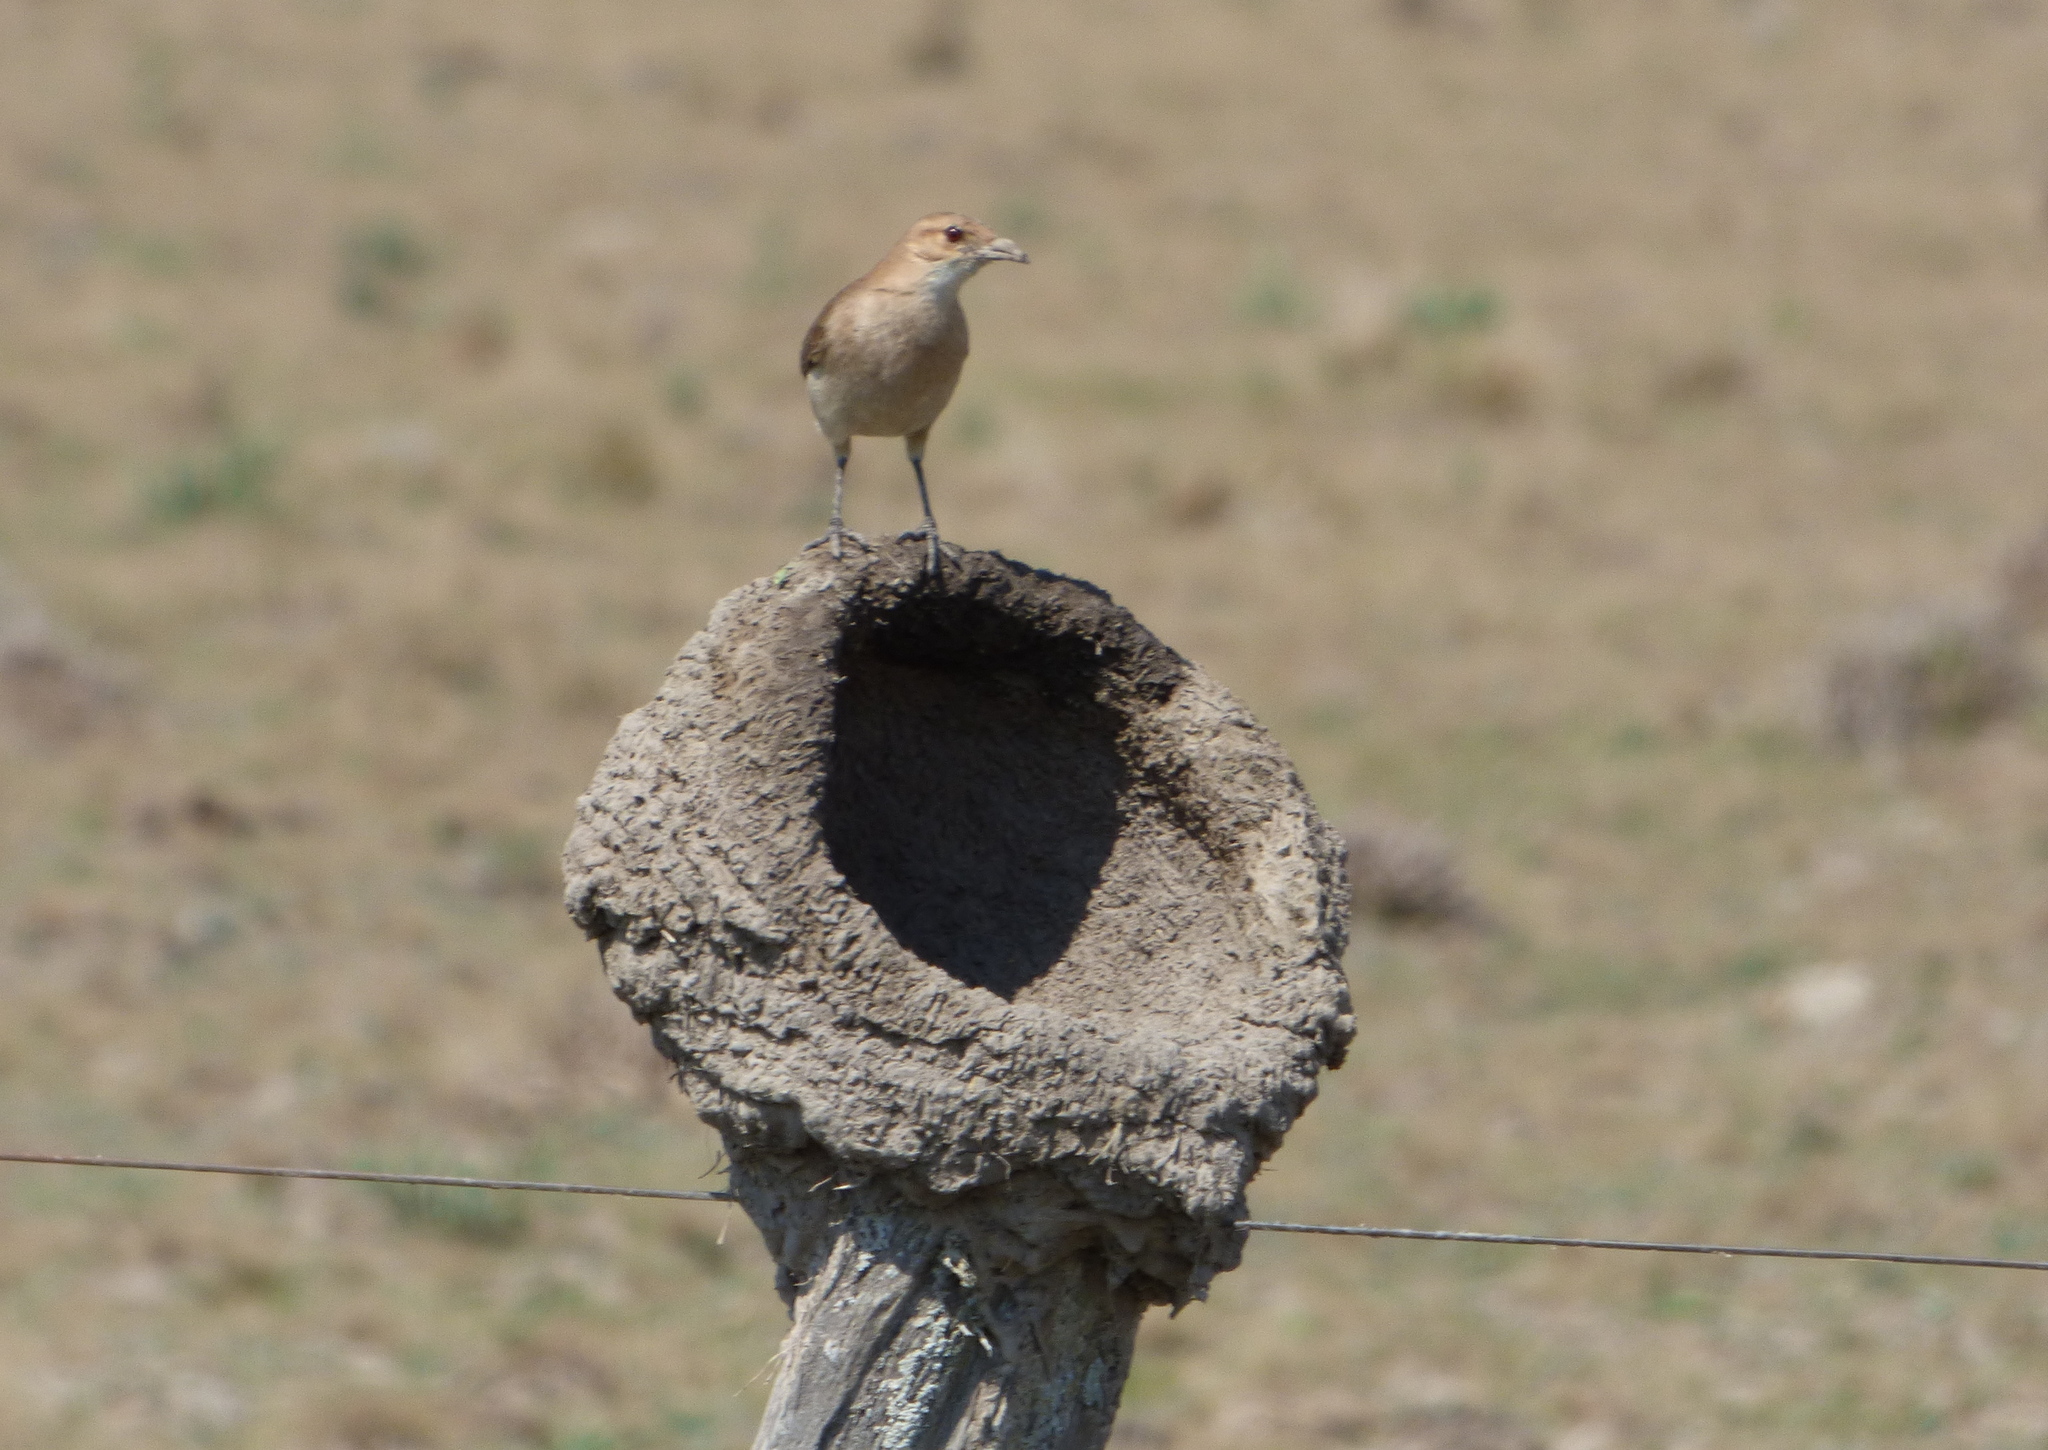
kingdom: Animalia
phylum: Chordata
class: Aves
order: Passeriformes
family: Furnariidae
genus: Furnarius
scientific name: Furnarius rufus
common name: Rufous hornero
